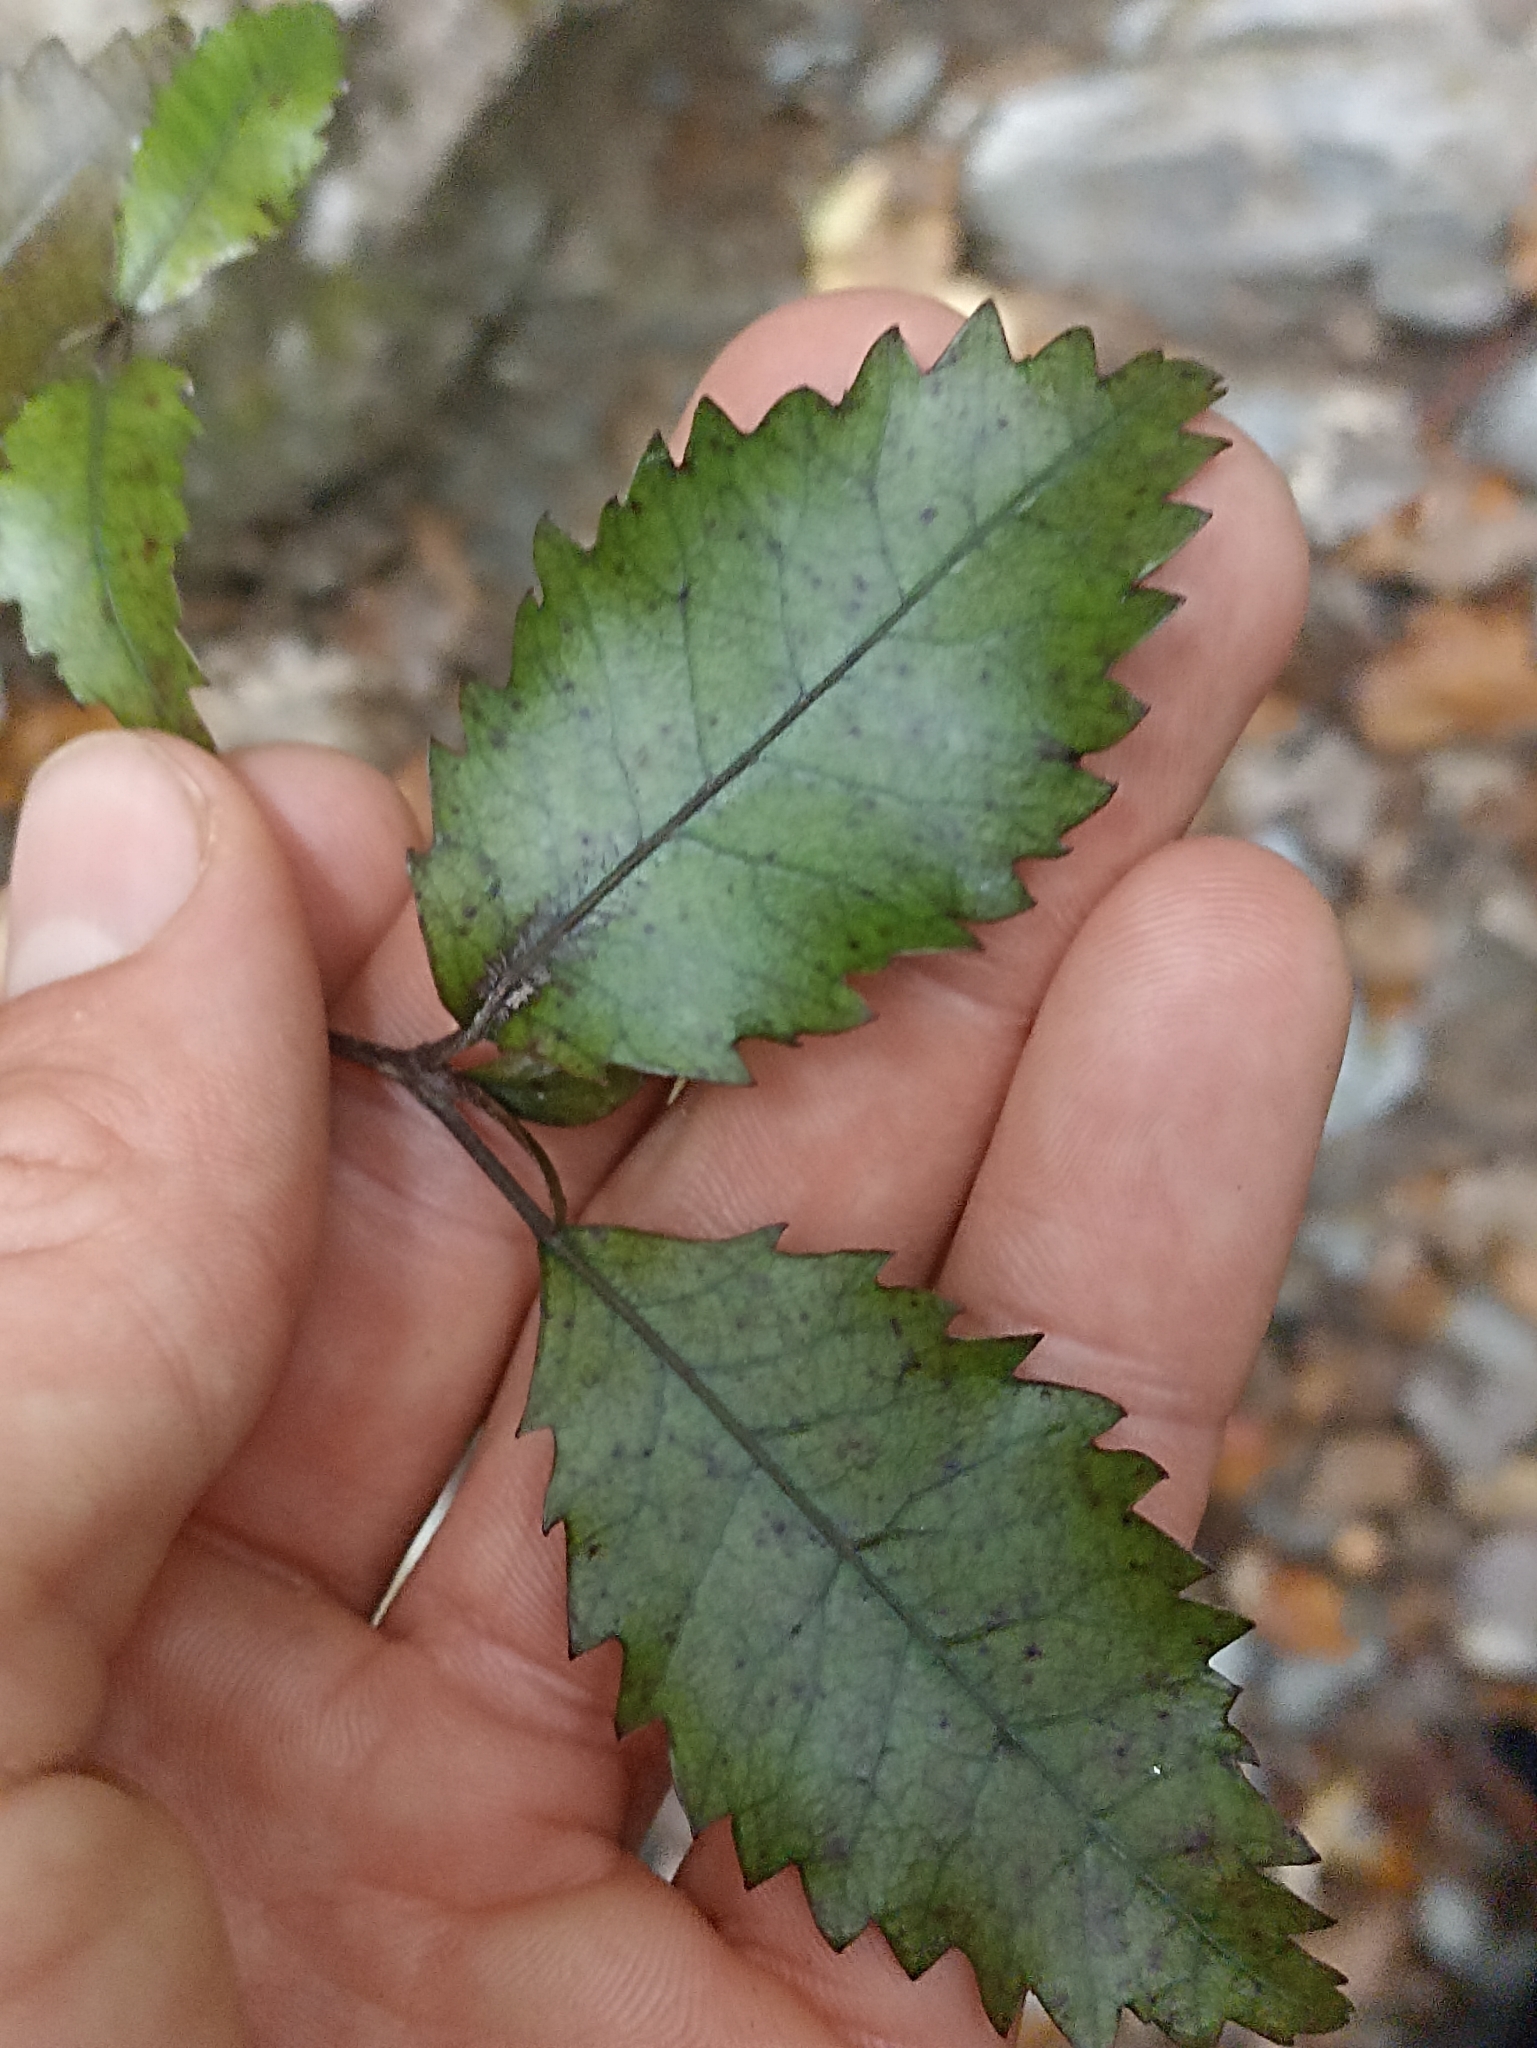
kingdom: Plantae
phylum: Tracheophyta
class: Magnoliopsida
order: Oxalidales
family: Cunoniaceae
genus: Pterophylla
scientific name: Pterophylla racemosa
